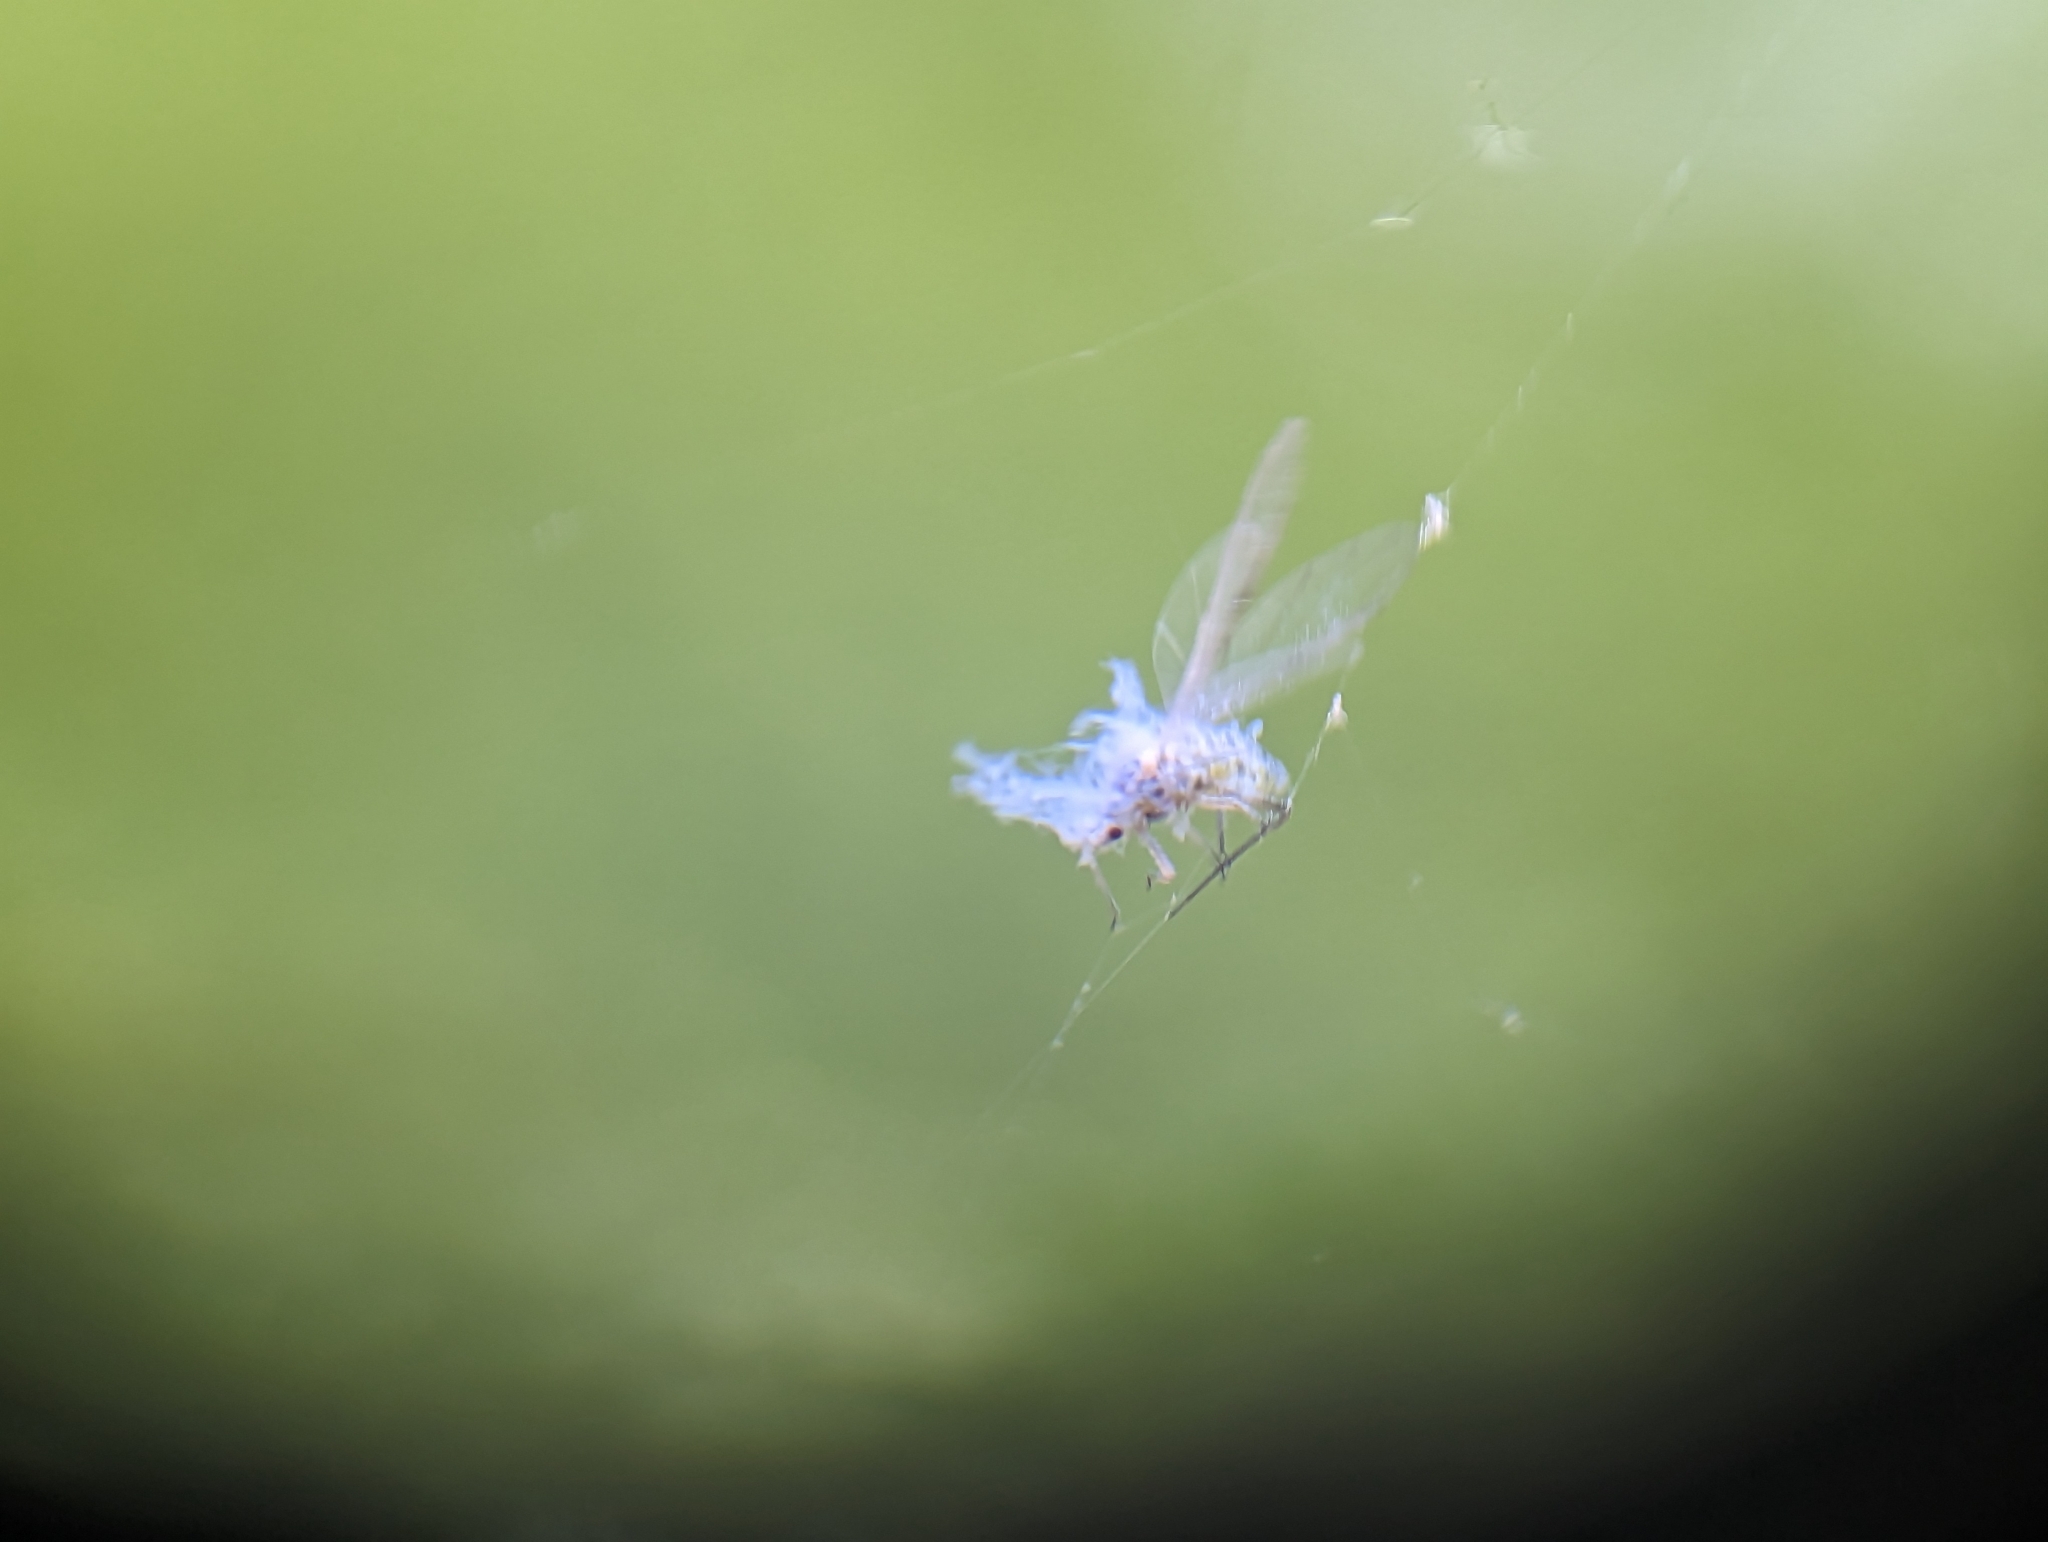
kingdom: Animalia
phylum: Arthropoda
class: Insecta
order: Hemiptera
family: Aphididae
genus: Phyllaphis
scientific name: Phyllaphis fagi
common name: Beech aphid
